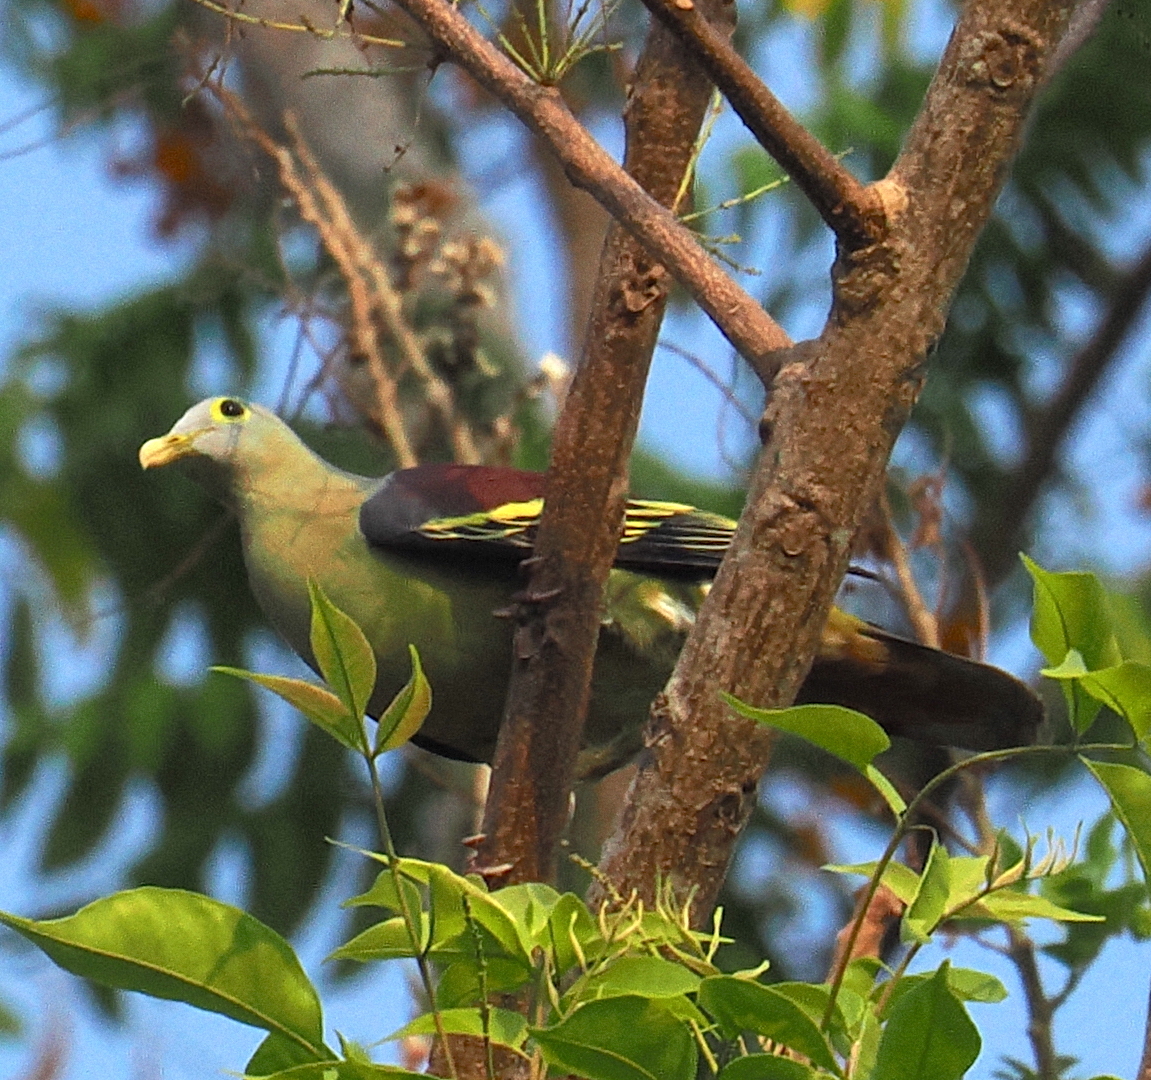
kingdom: Animalia
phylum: Chordata
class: Aves
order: Columbiformes
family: Columbidae
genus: Treron
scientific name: Treron griseicauda
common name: Grey-cheeked green pigeon
